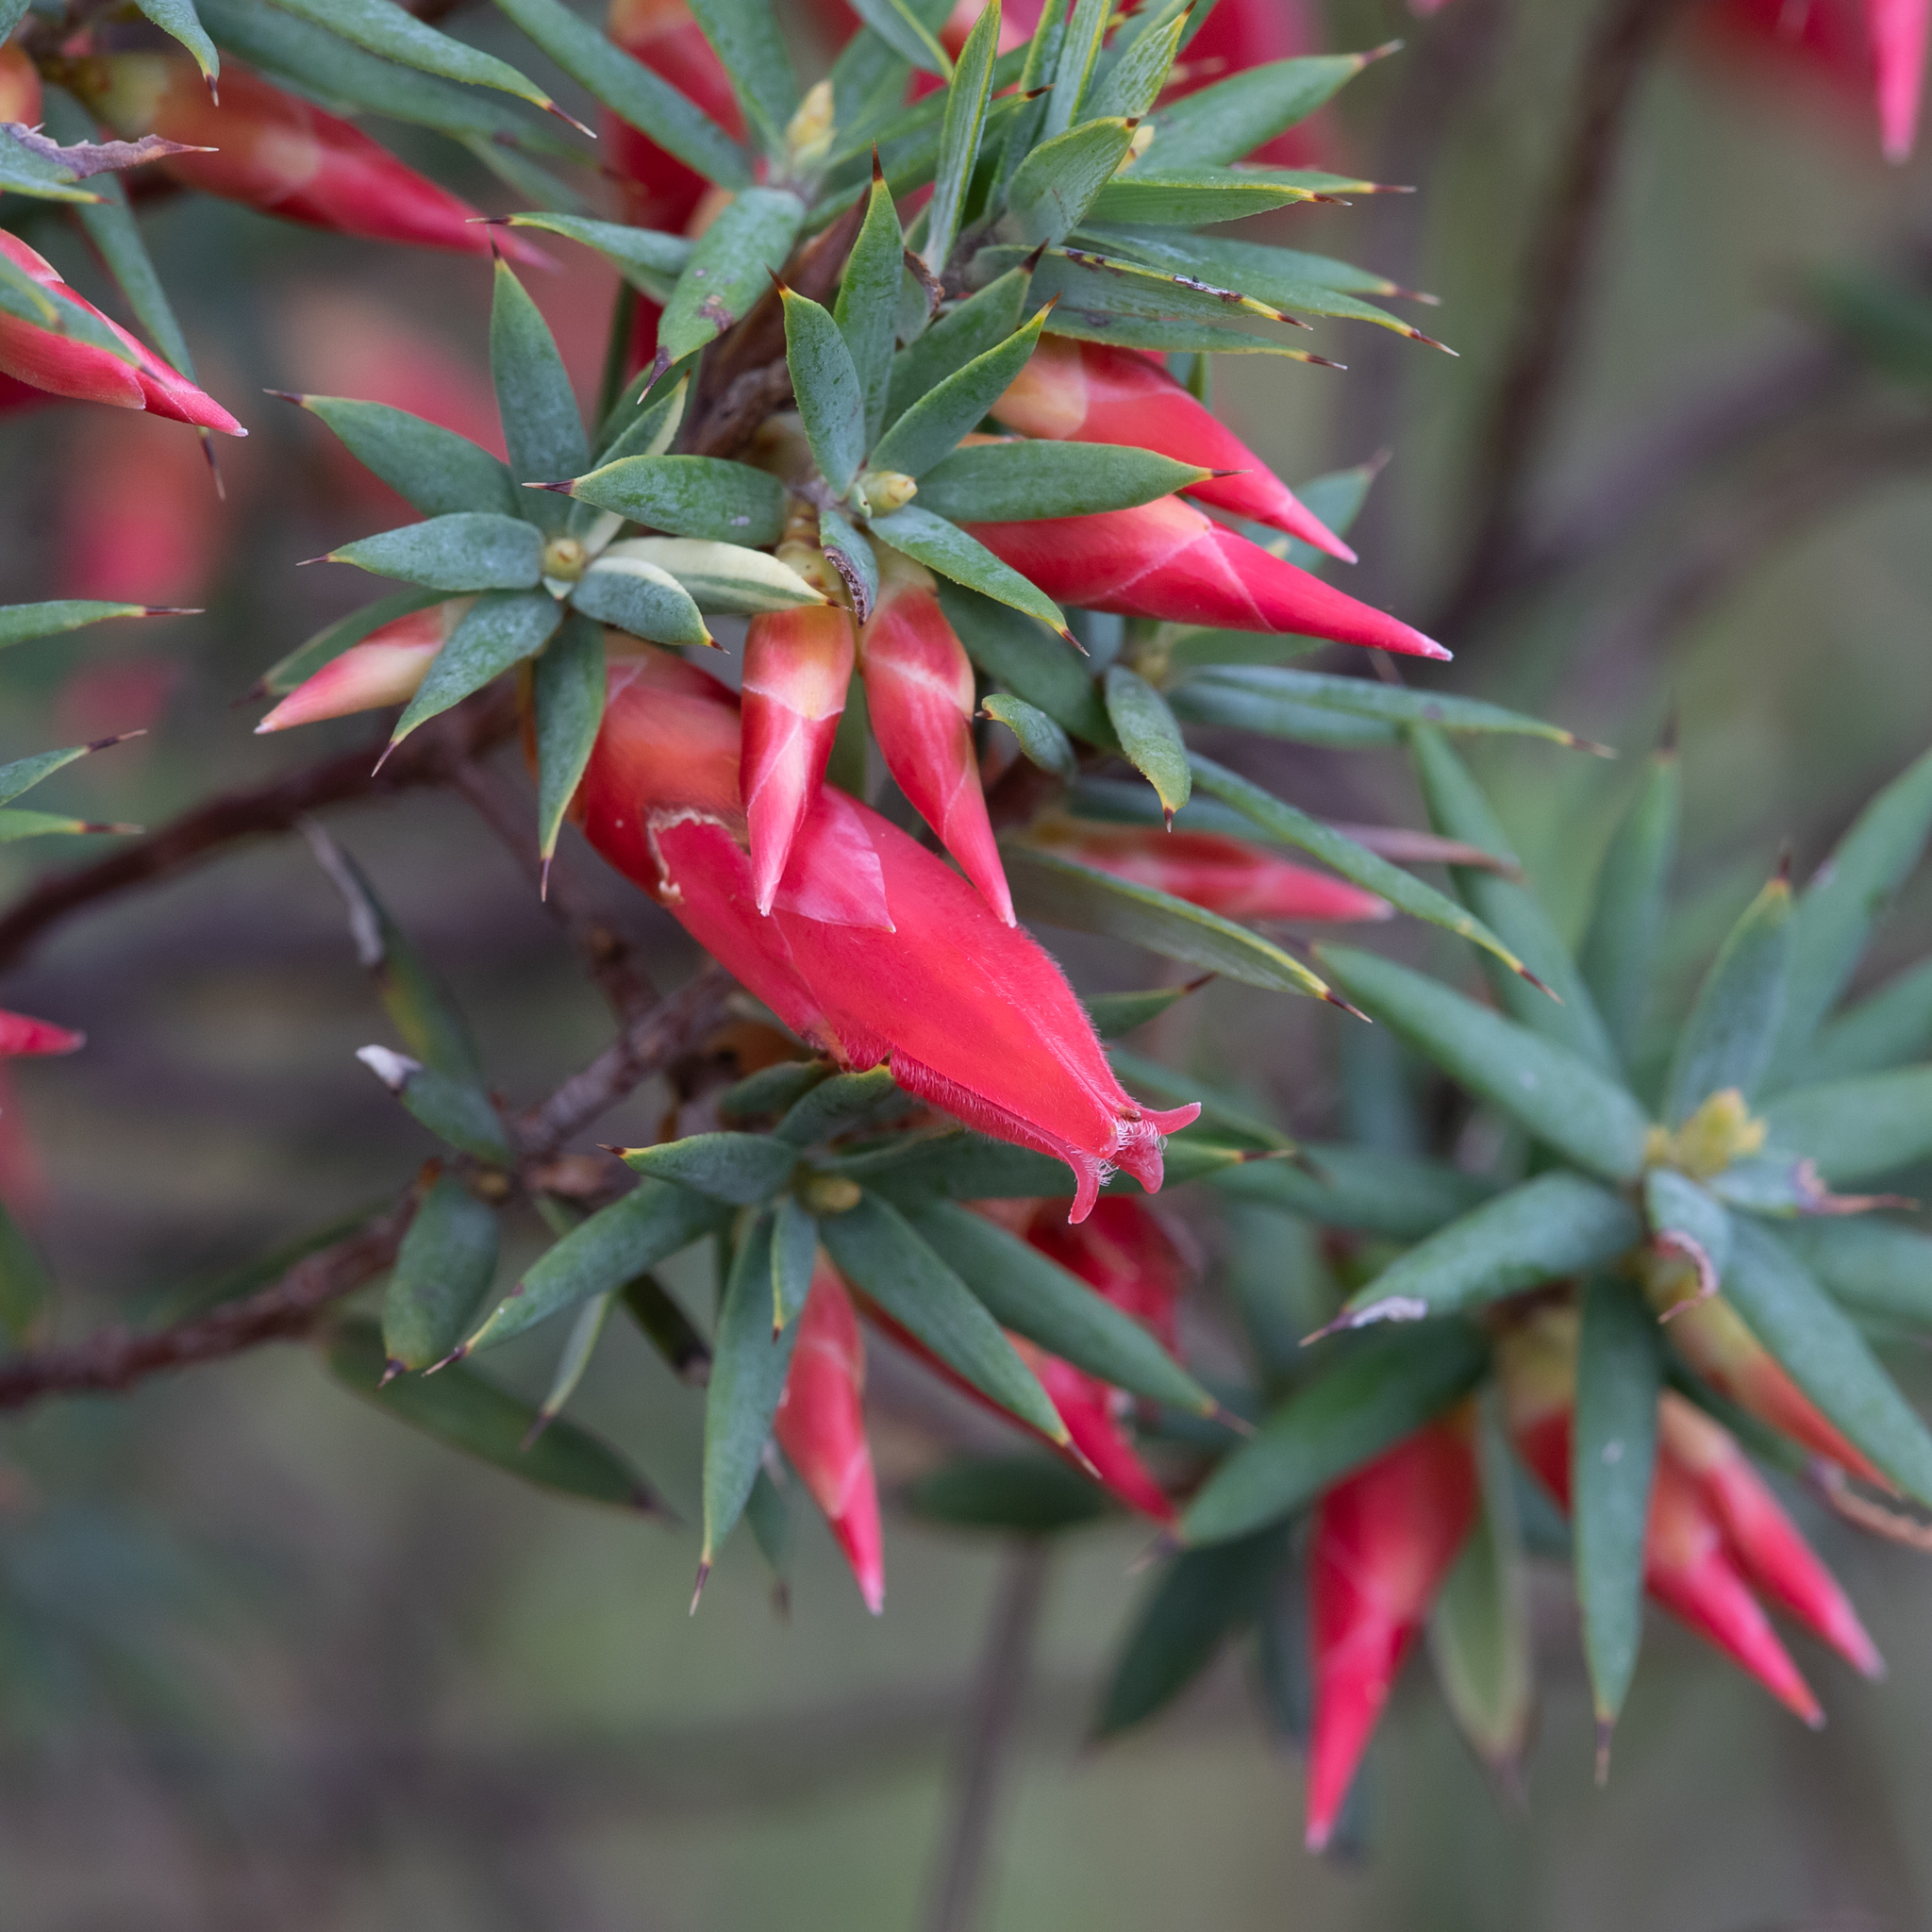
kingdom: Plantae
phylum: Tracheophyta
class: Magnoliopsida
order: Ericales
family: Ericaceae
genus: Stenanthera
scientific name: Stenanthera conostephioides
